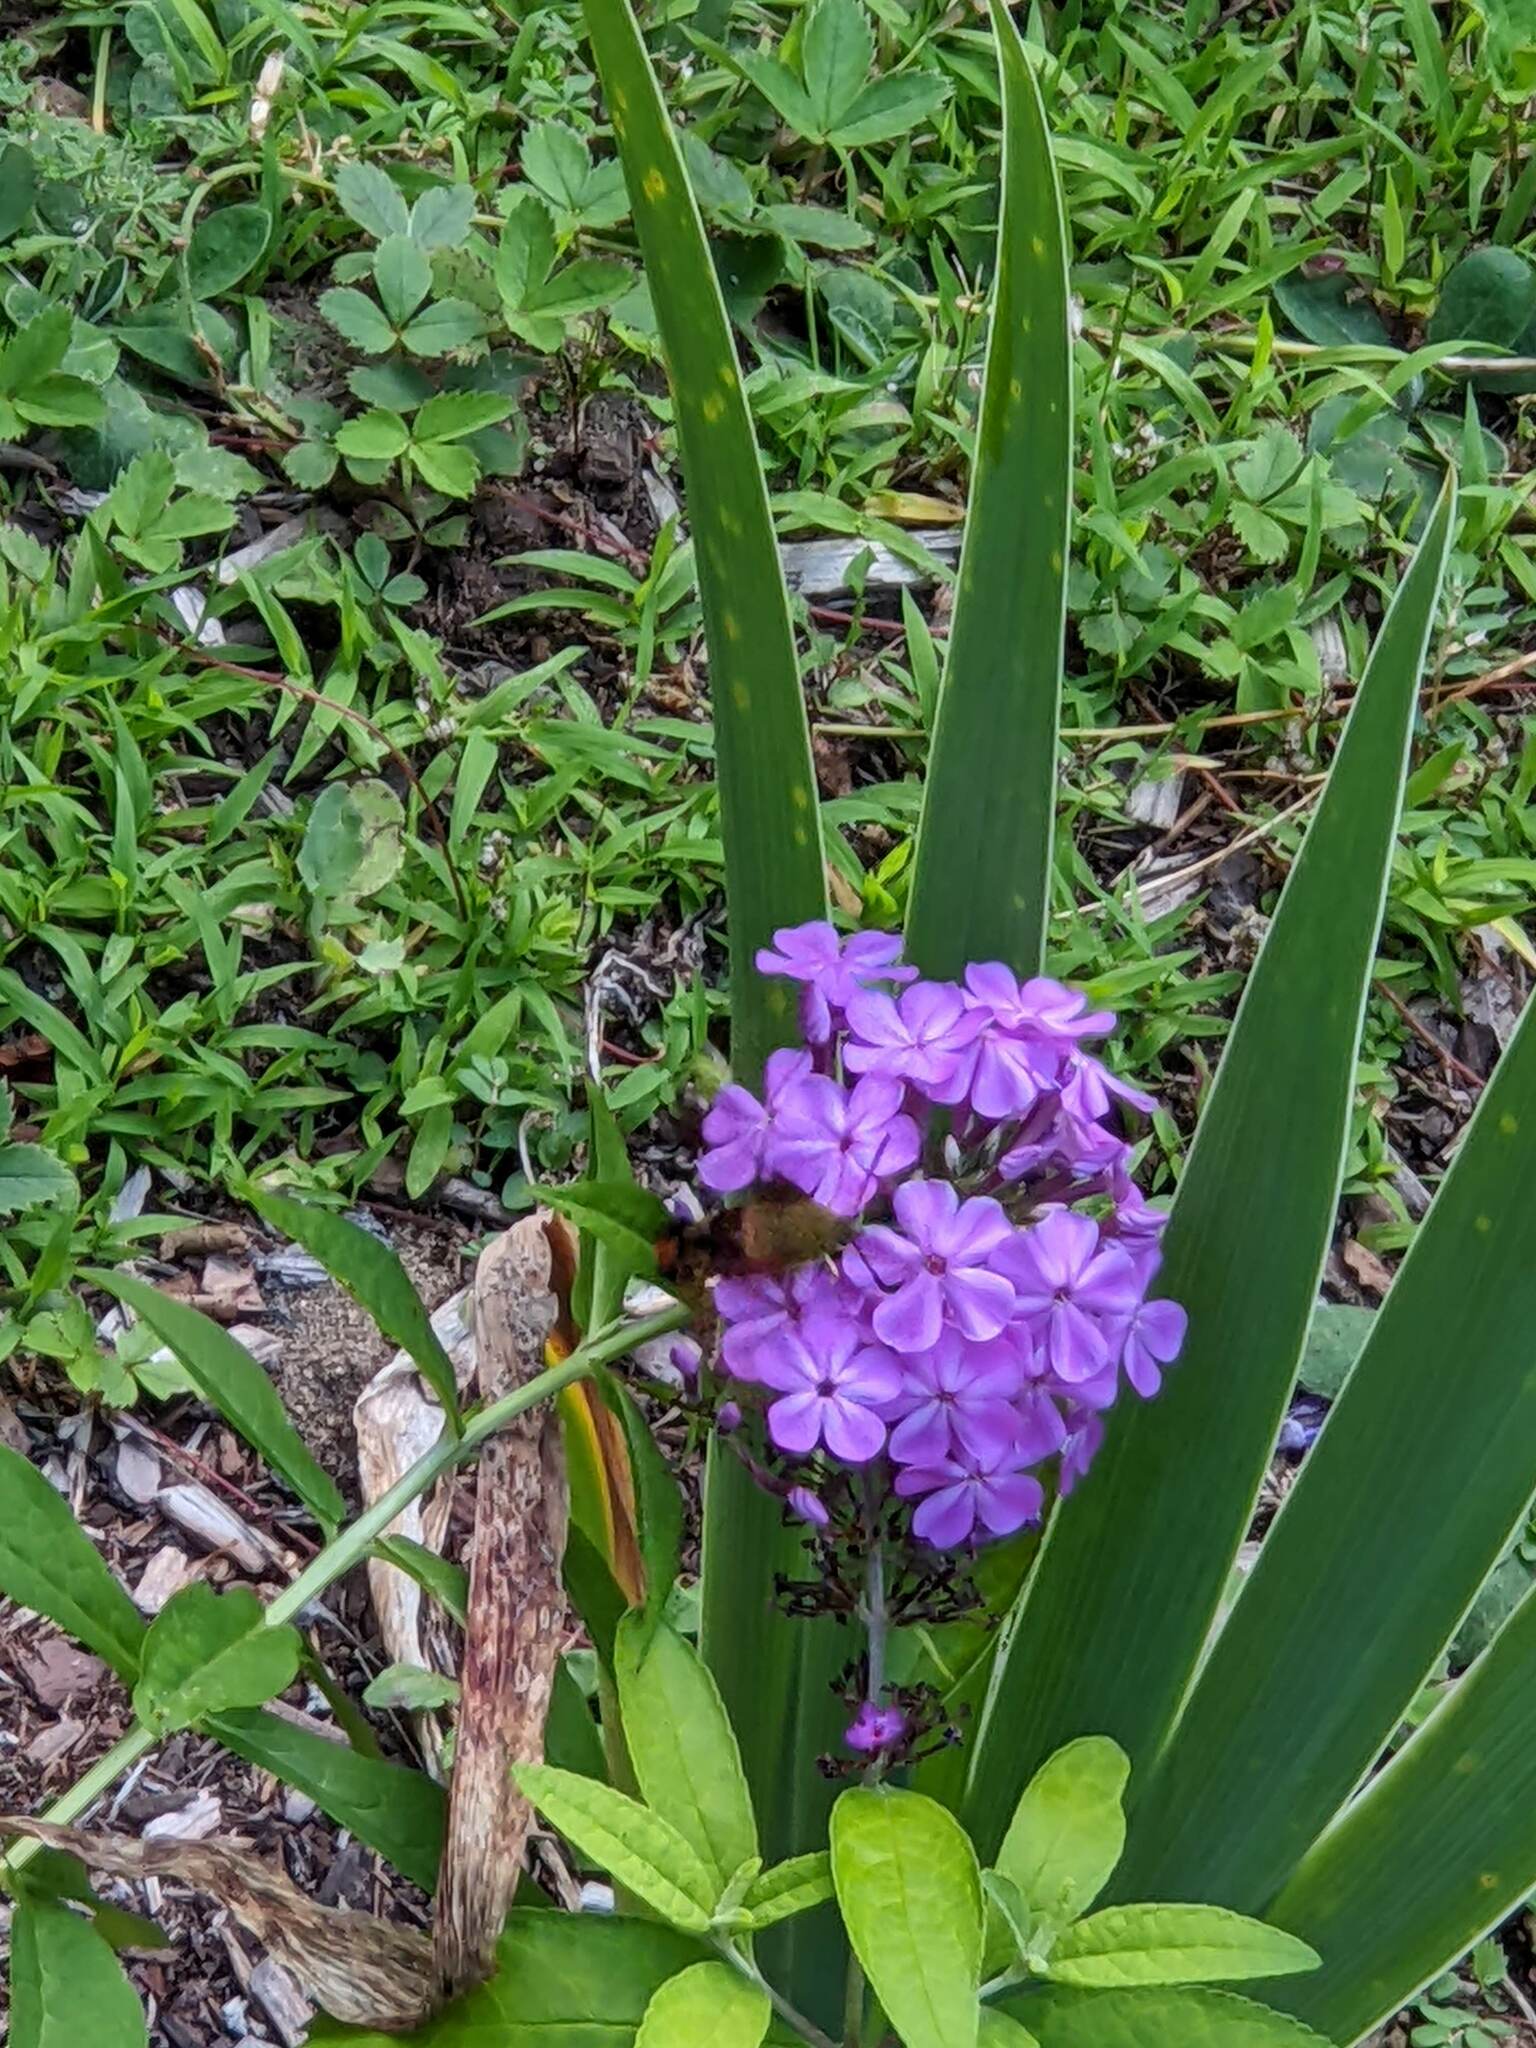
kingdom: Animalia
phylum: Arthropoda
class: Insecta
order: Lepidoptera
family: Sphingidae
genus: Hemaris
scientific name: Hemaris thysbe
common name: Common clear-wing
